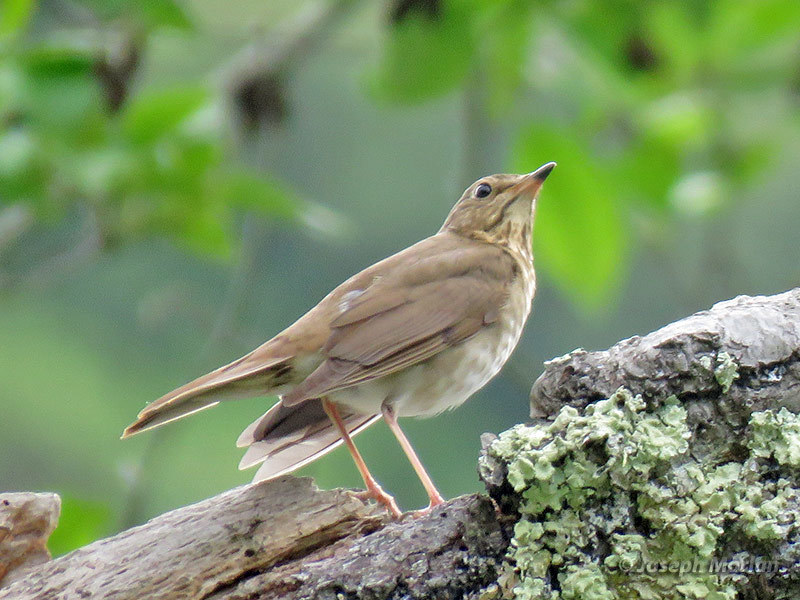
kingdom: Animalia
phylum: Chordata
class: Aves
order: Passeriformes
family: Turdidae
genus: Catharus
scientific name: Catharus ustulatus
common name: Swainson's thrush
